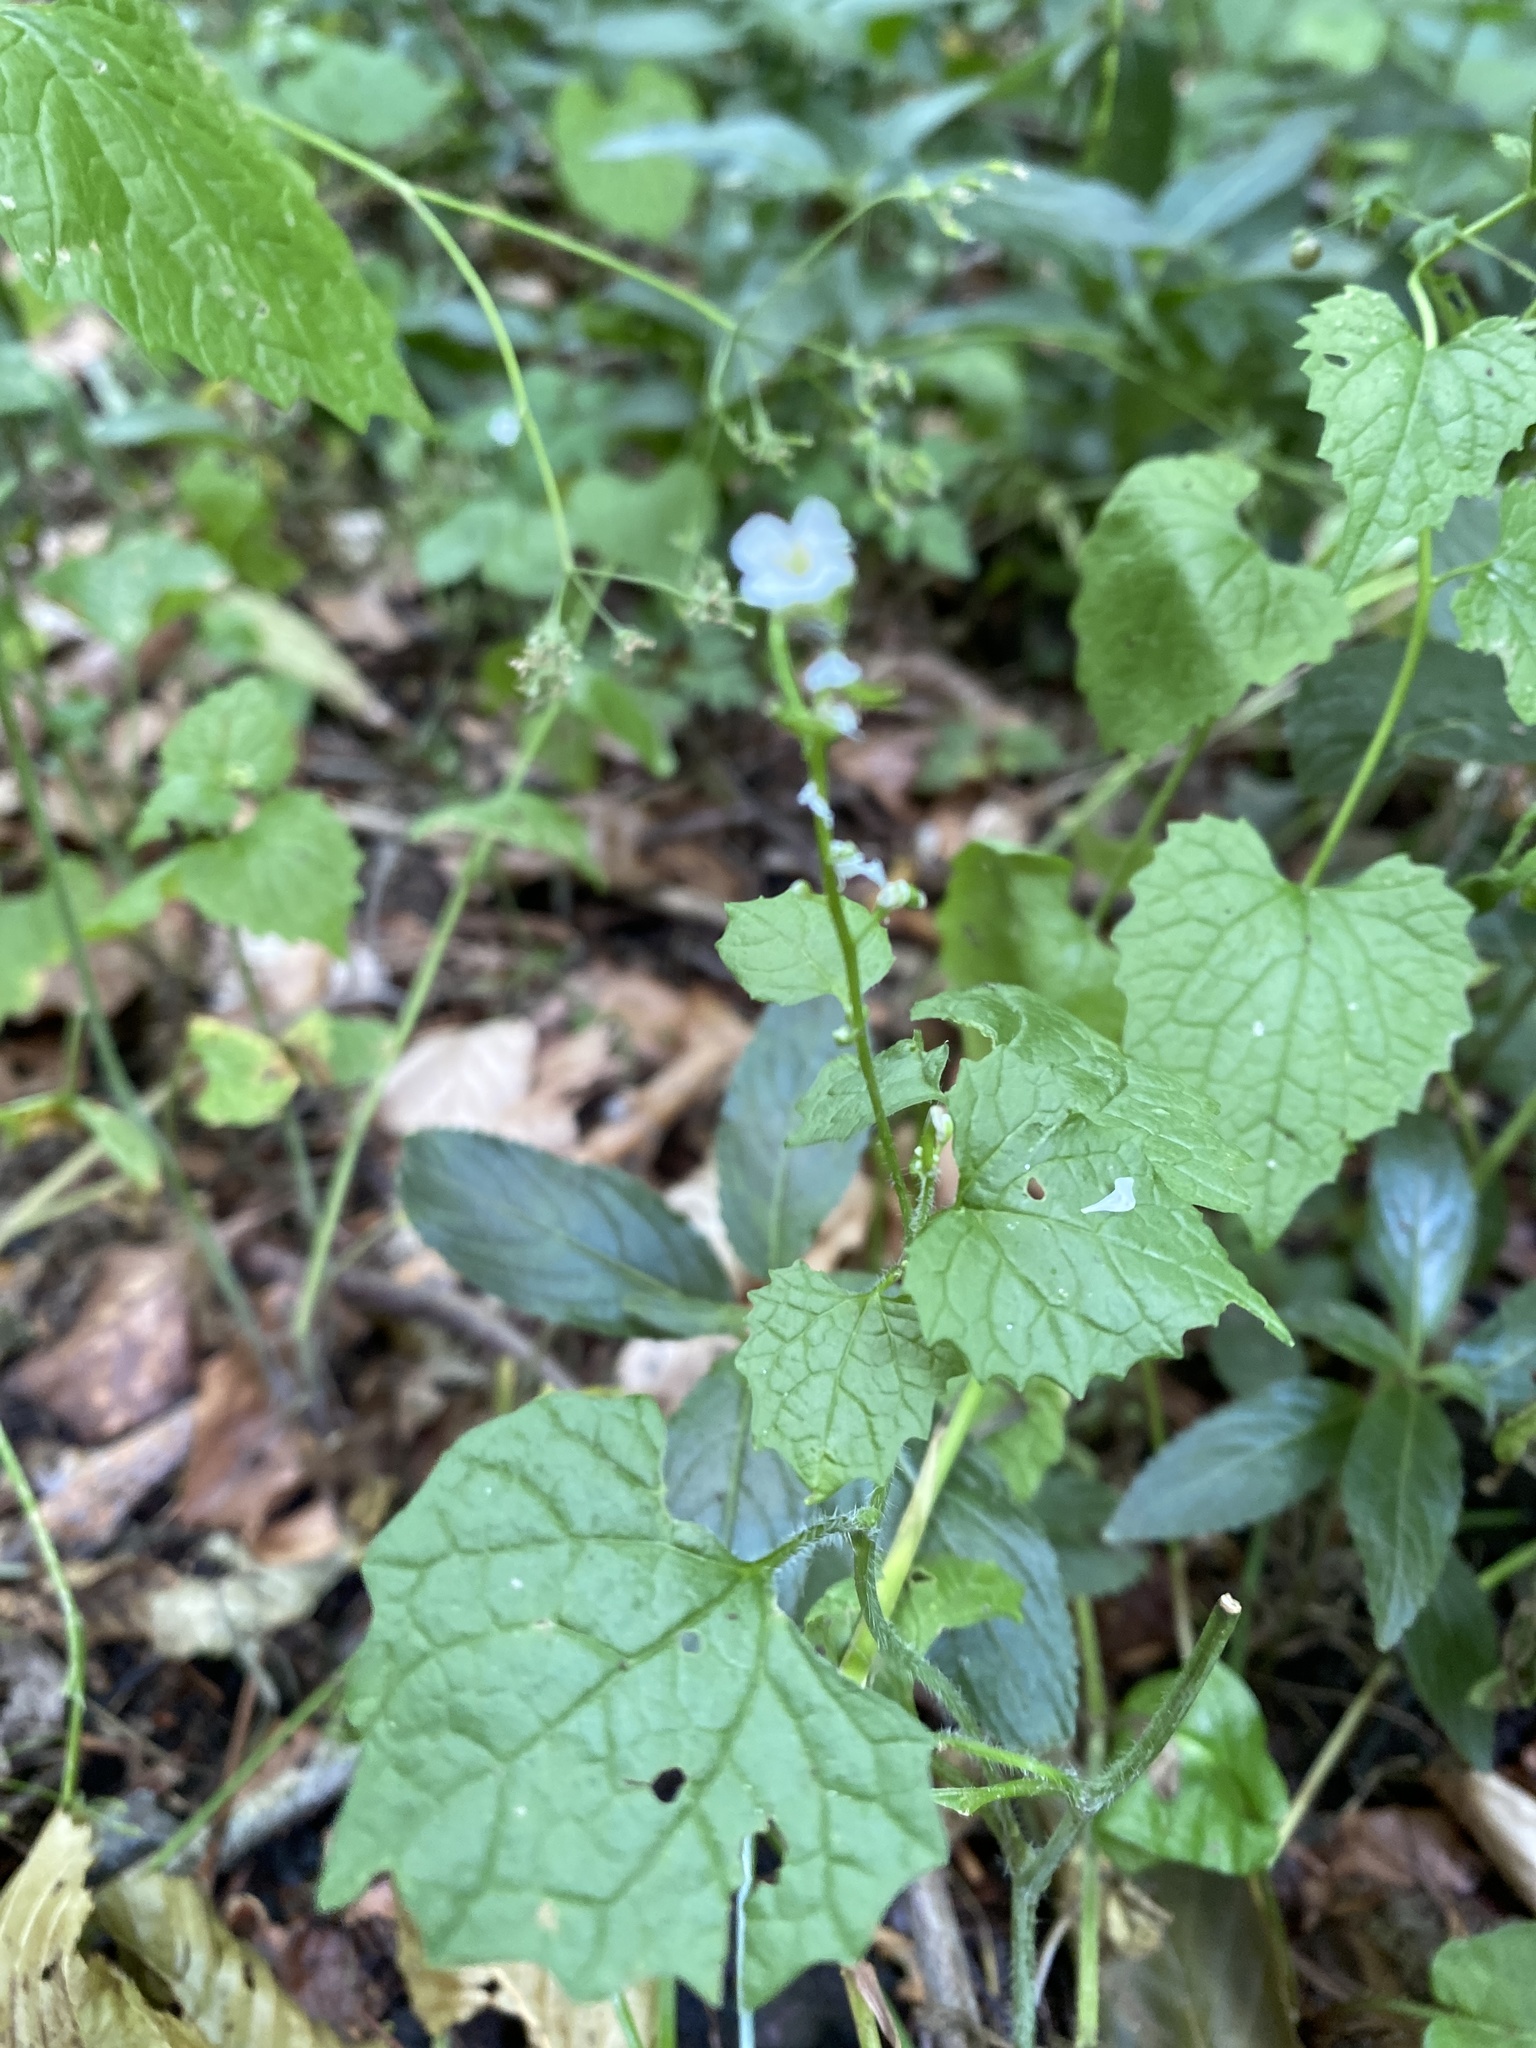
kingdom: Plantae
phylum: Tracheophyta
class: Magnoliopsida
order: Brassicales
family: Brassicaceae
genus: Alliaria
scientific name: Alliaria petiolata
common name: Garlic mustard
